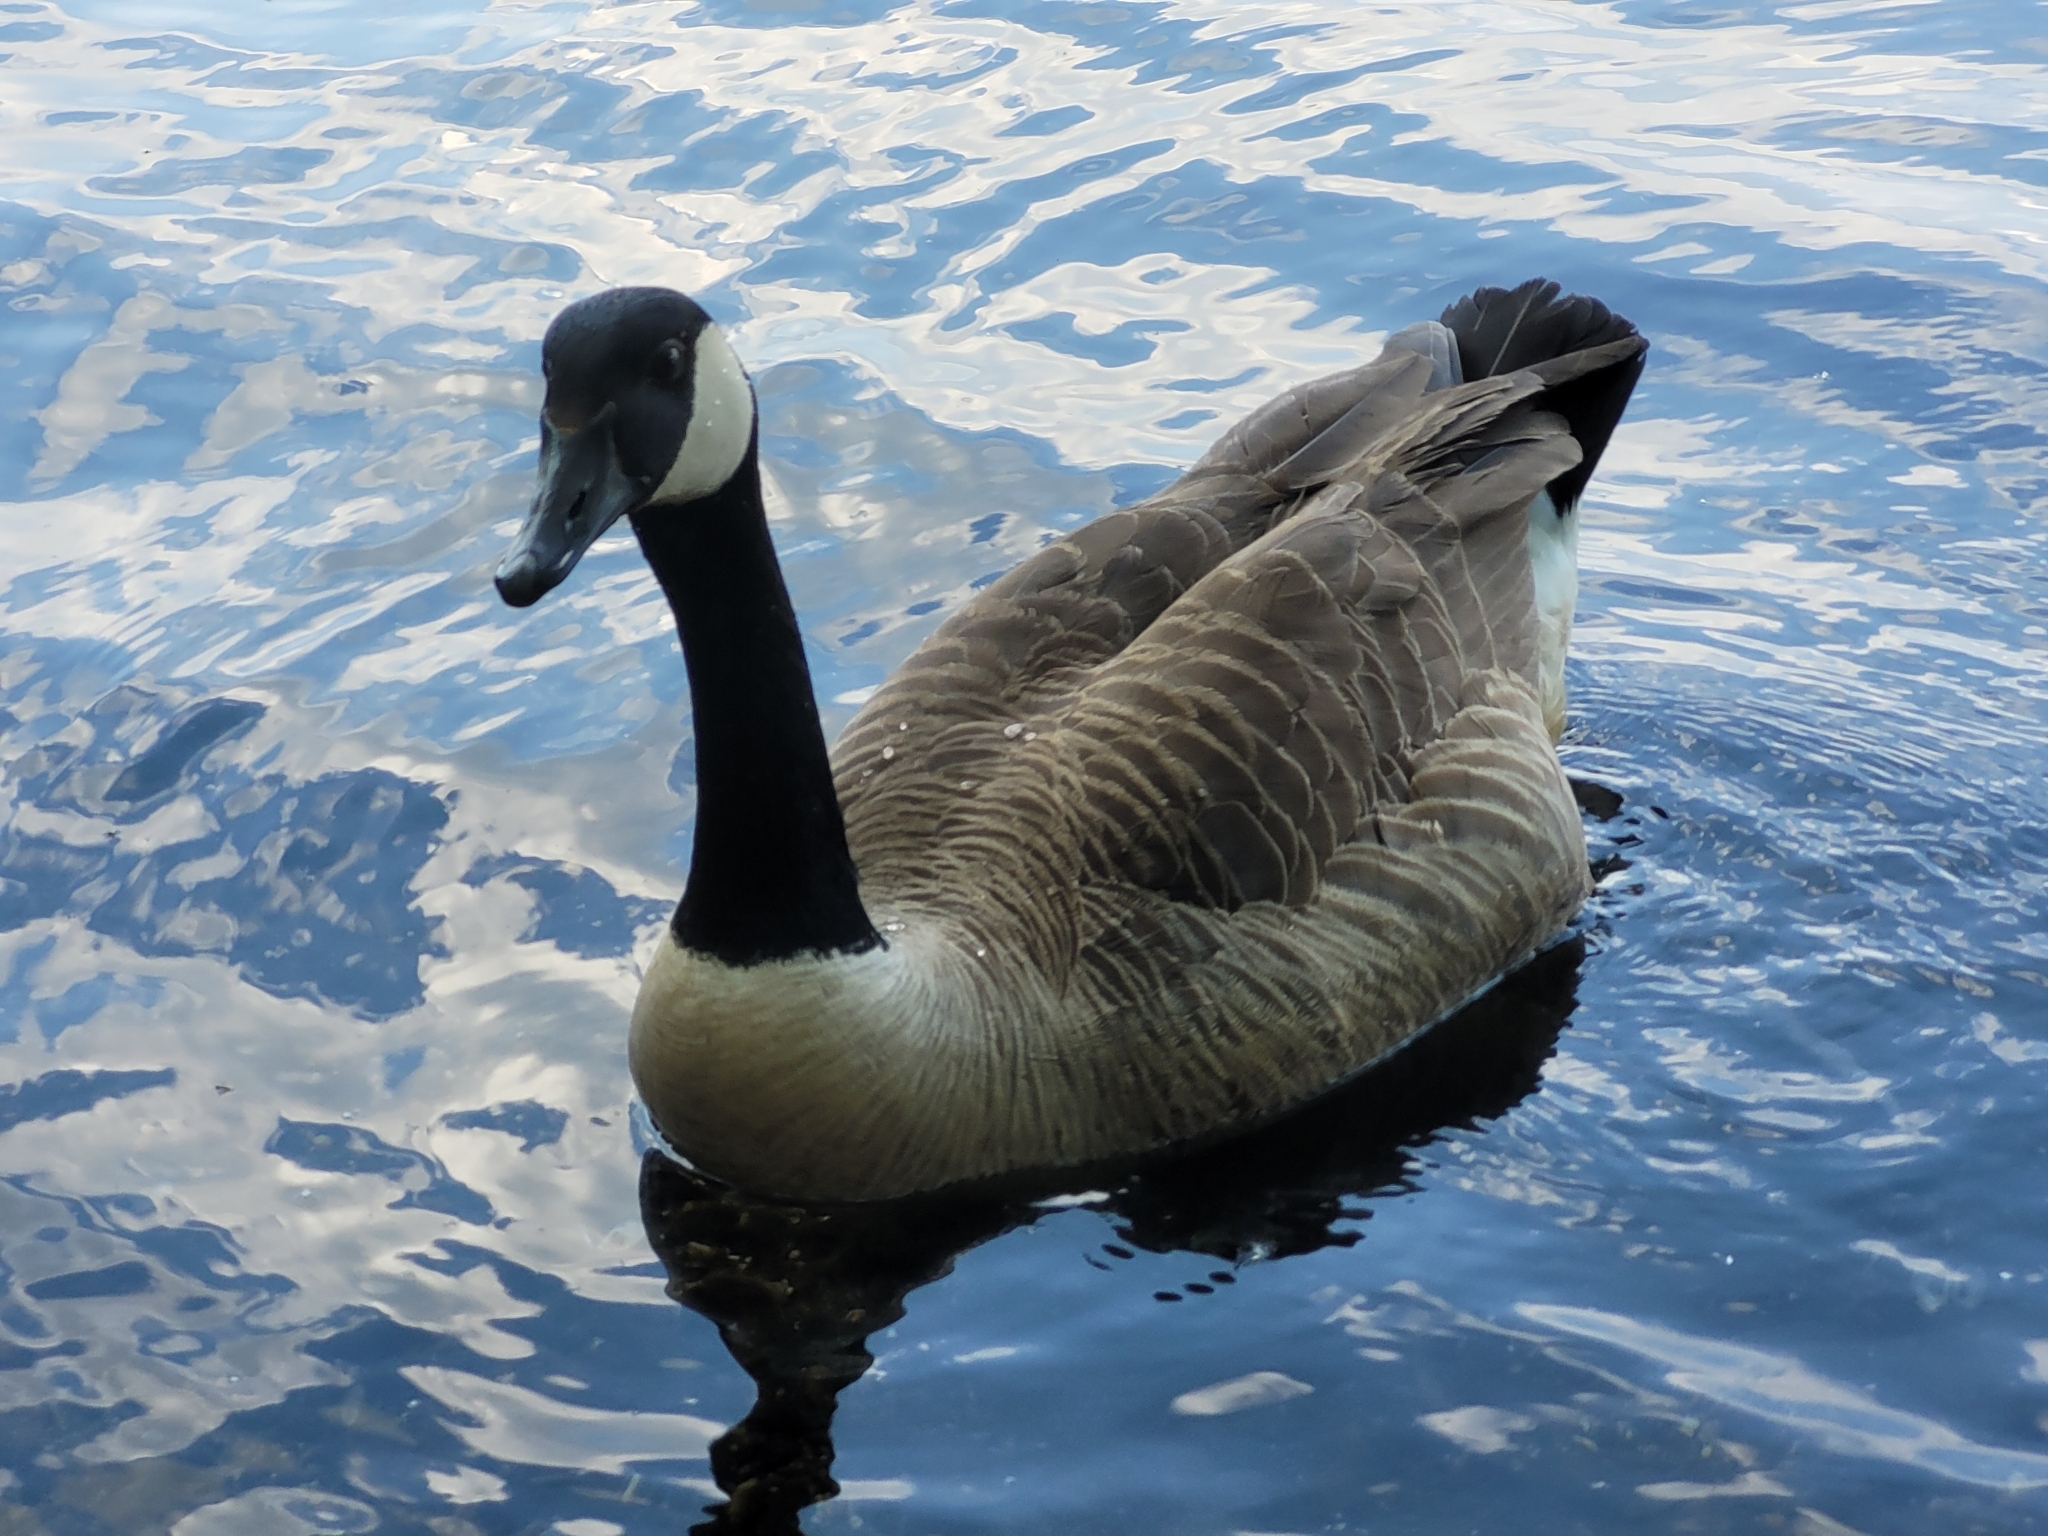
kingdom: Animalia
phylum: Chordata
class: Aves
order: Anseriformes
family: Anatidae
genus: Branta
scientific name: Branta canadensis
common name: Canada goose
